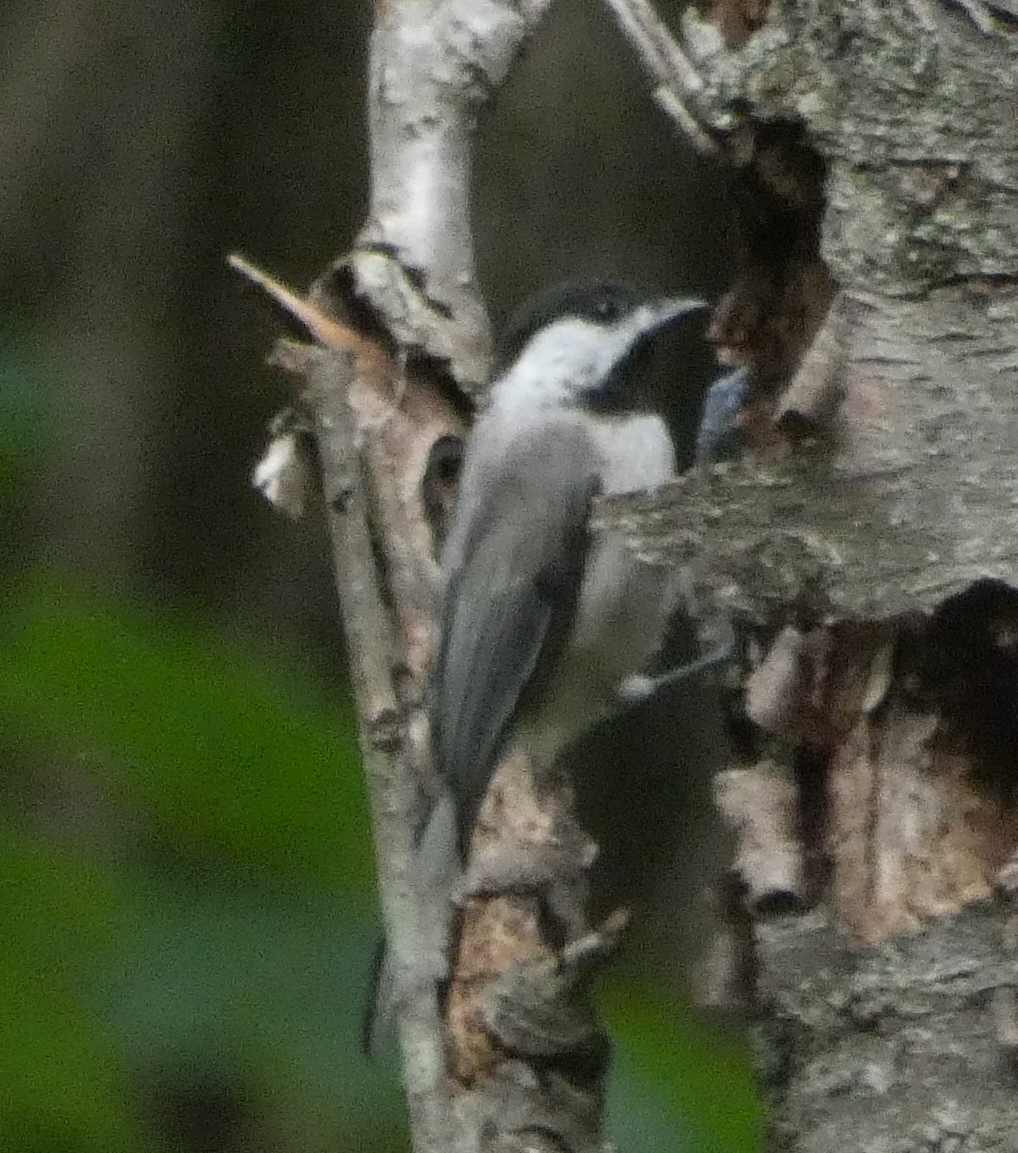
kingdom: Animalia
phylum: Chordata
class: Aves
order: Passeriformes
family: Paridae
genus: Poecile
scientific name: Poecile carolinensis
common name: Carolina chickadee
